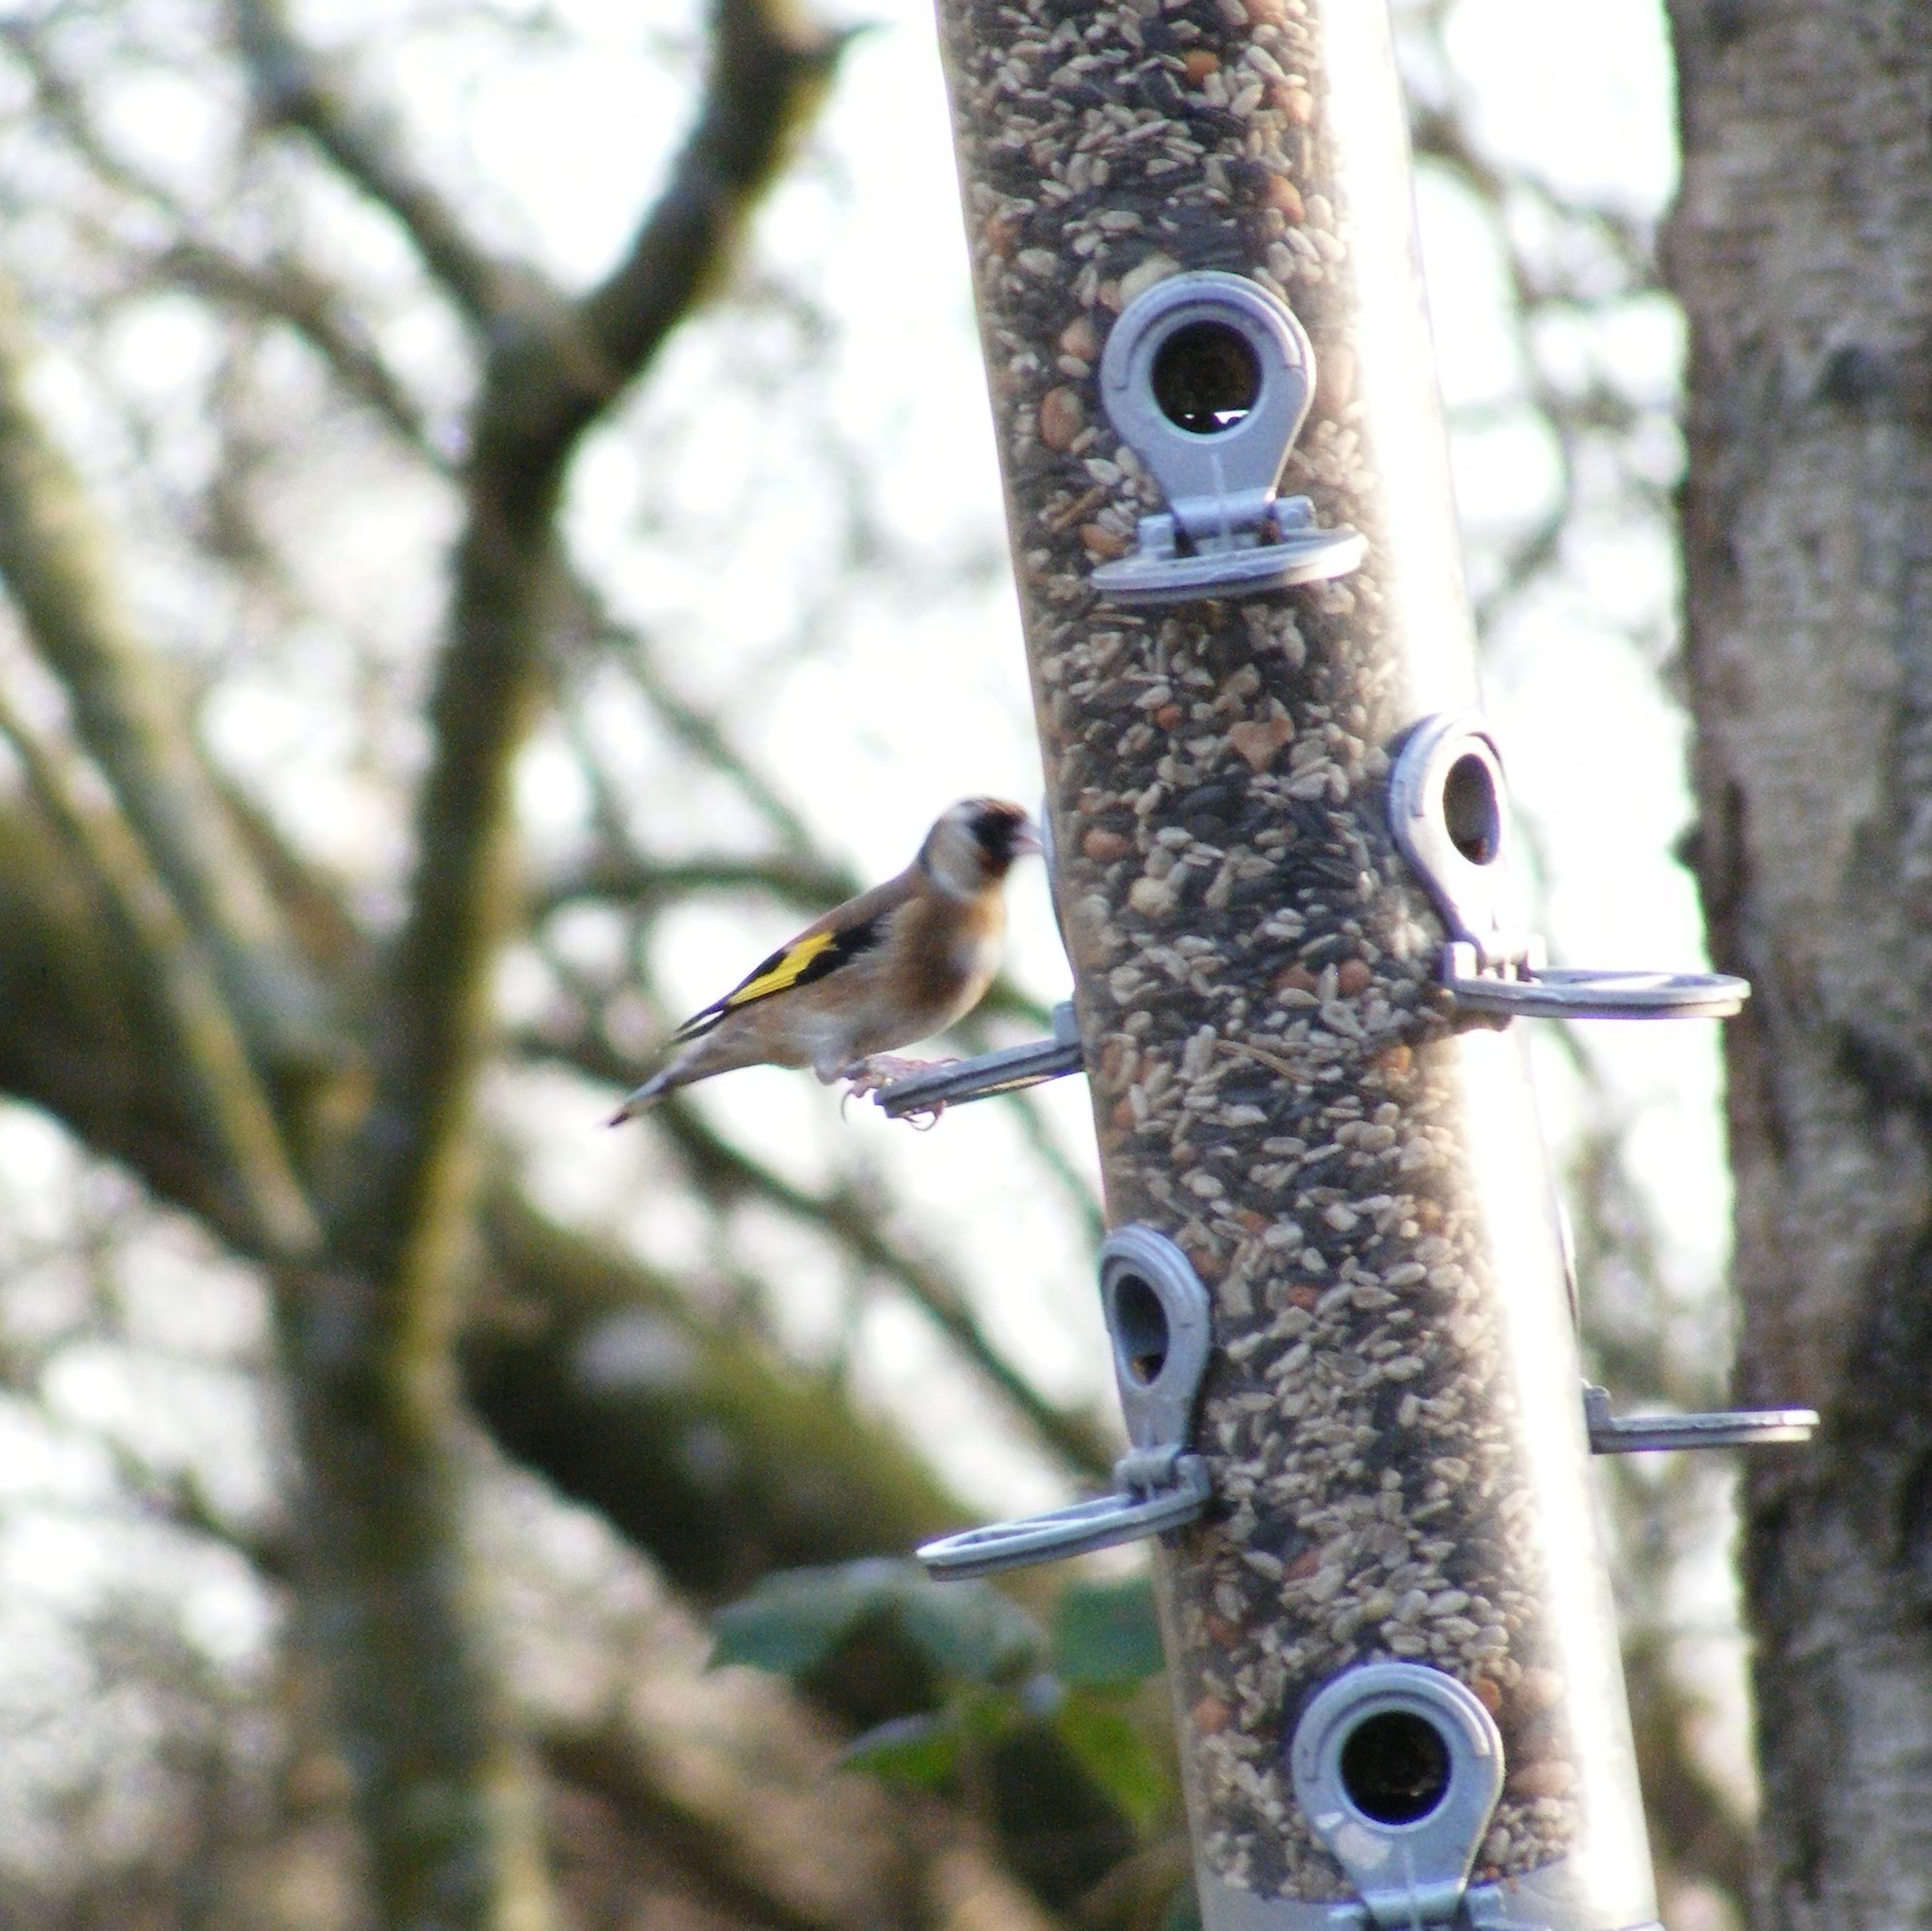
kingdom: Animalia
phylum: Chordata
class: Aves
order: Passeriformes
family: Fringillidae
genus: Carduelis
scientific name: Carduelis carduelis
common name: European goldfinch
